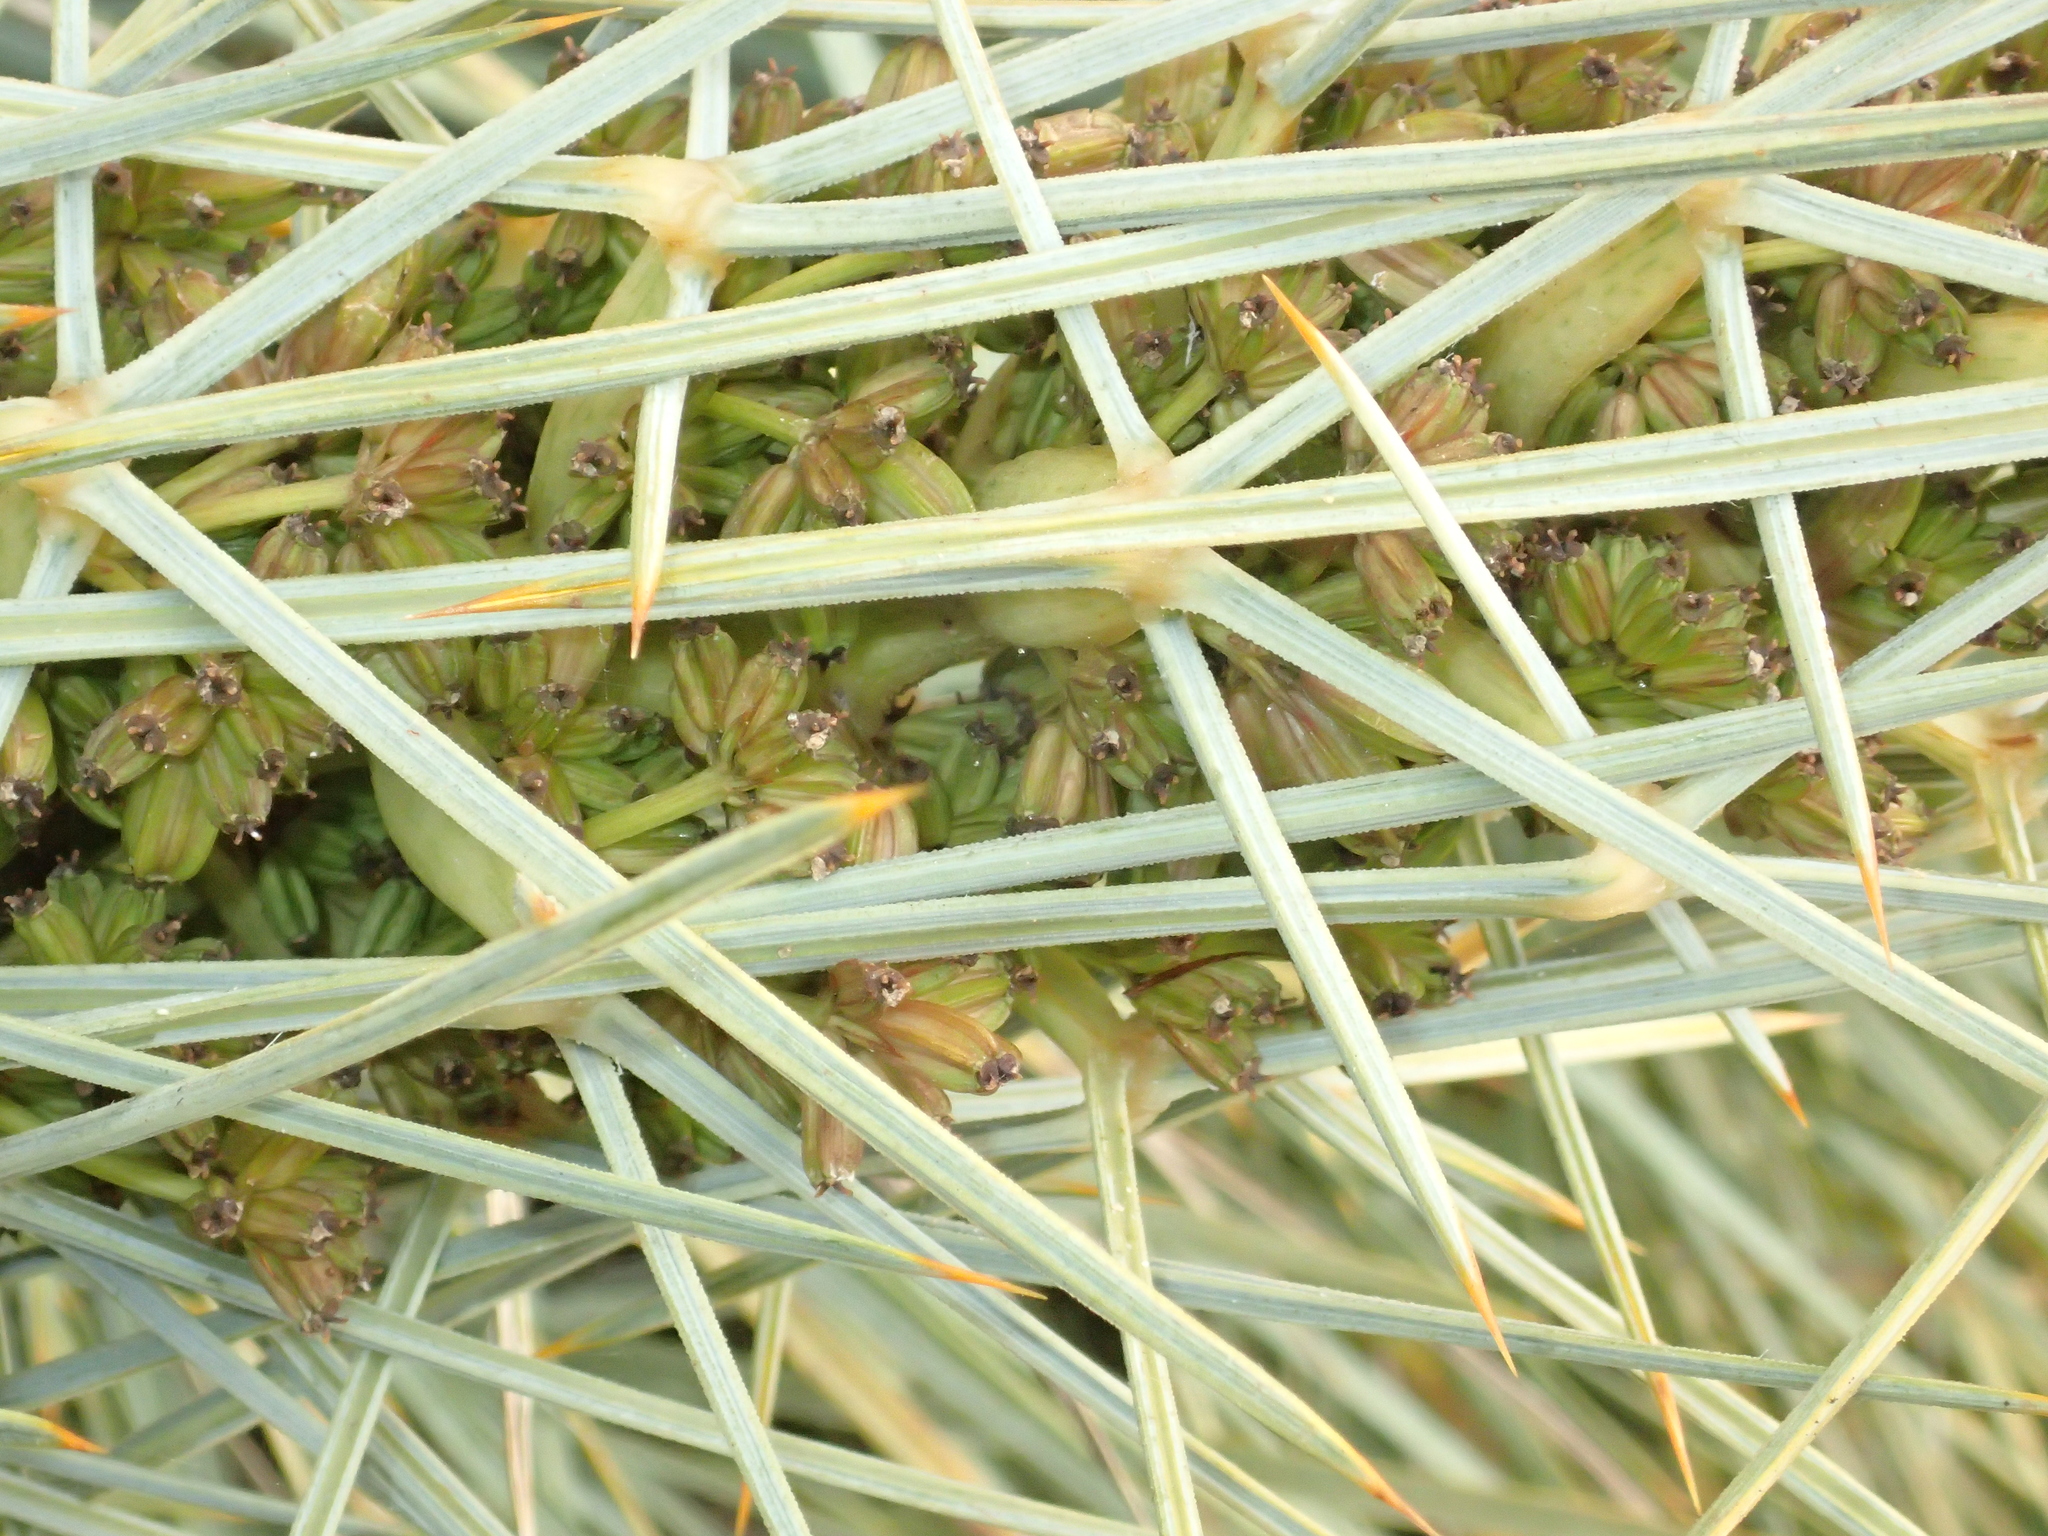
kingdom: Plantae
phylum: Tracheophyta
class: Magnoliopsida
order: Apiales
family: Apiaceae
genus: Aciphylla
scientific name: Aciphylla squarrosa
